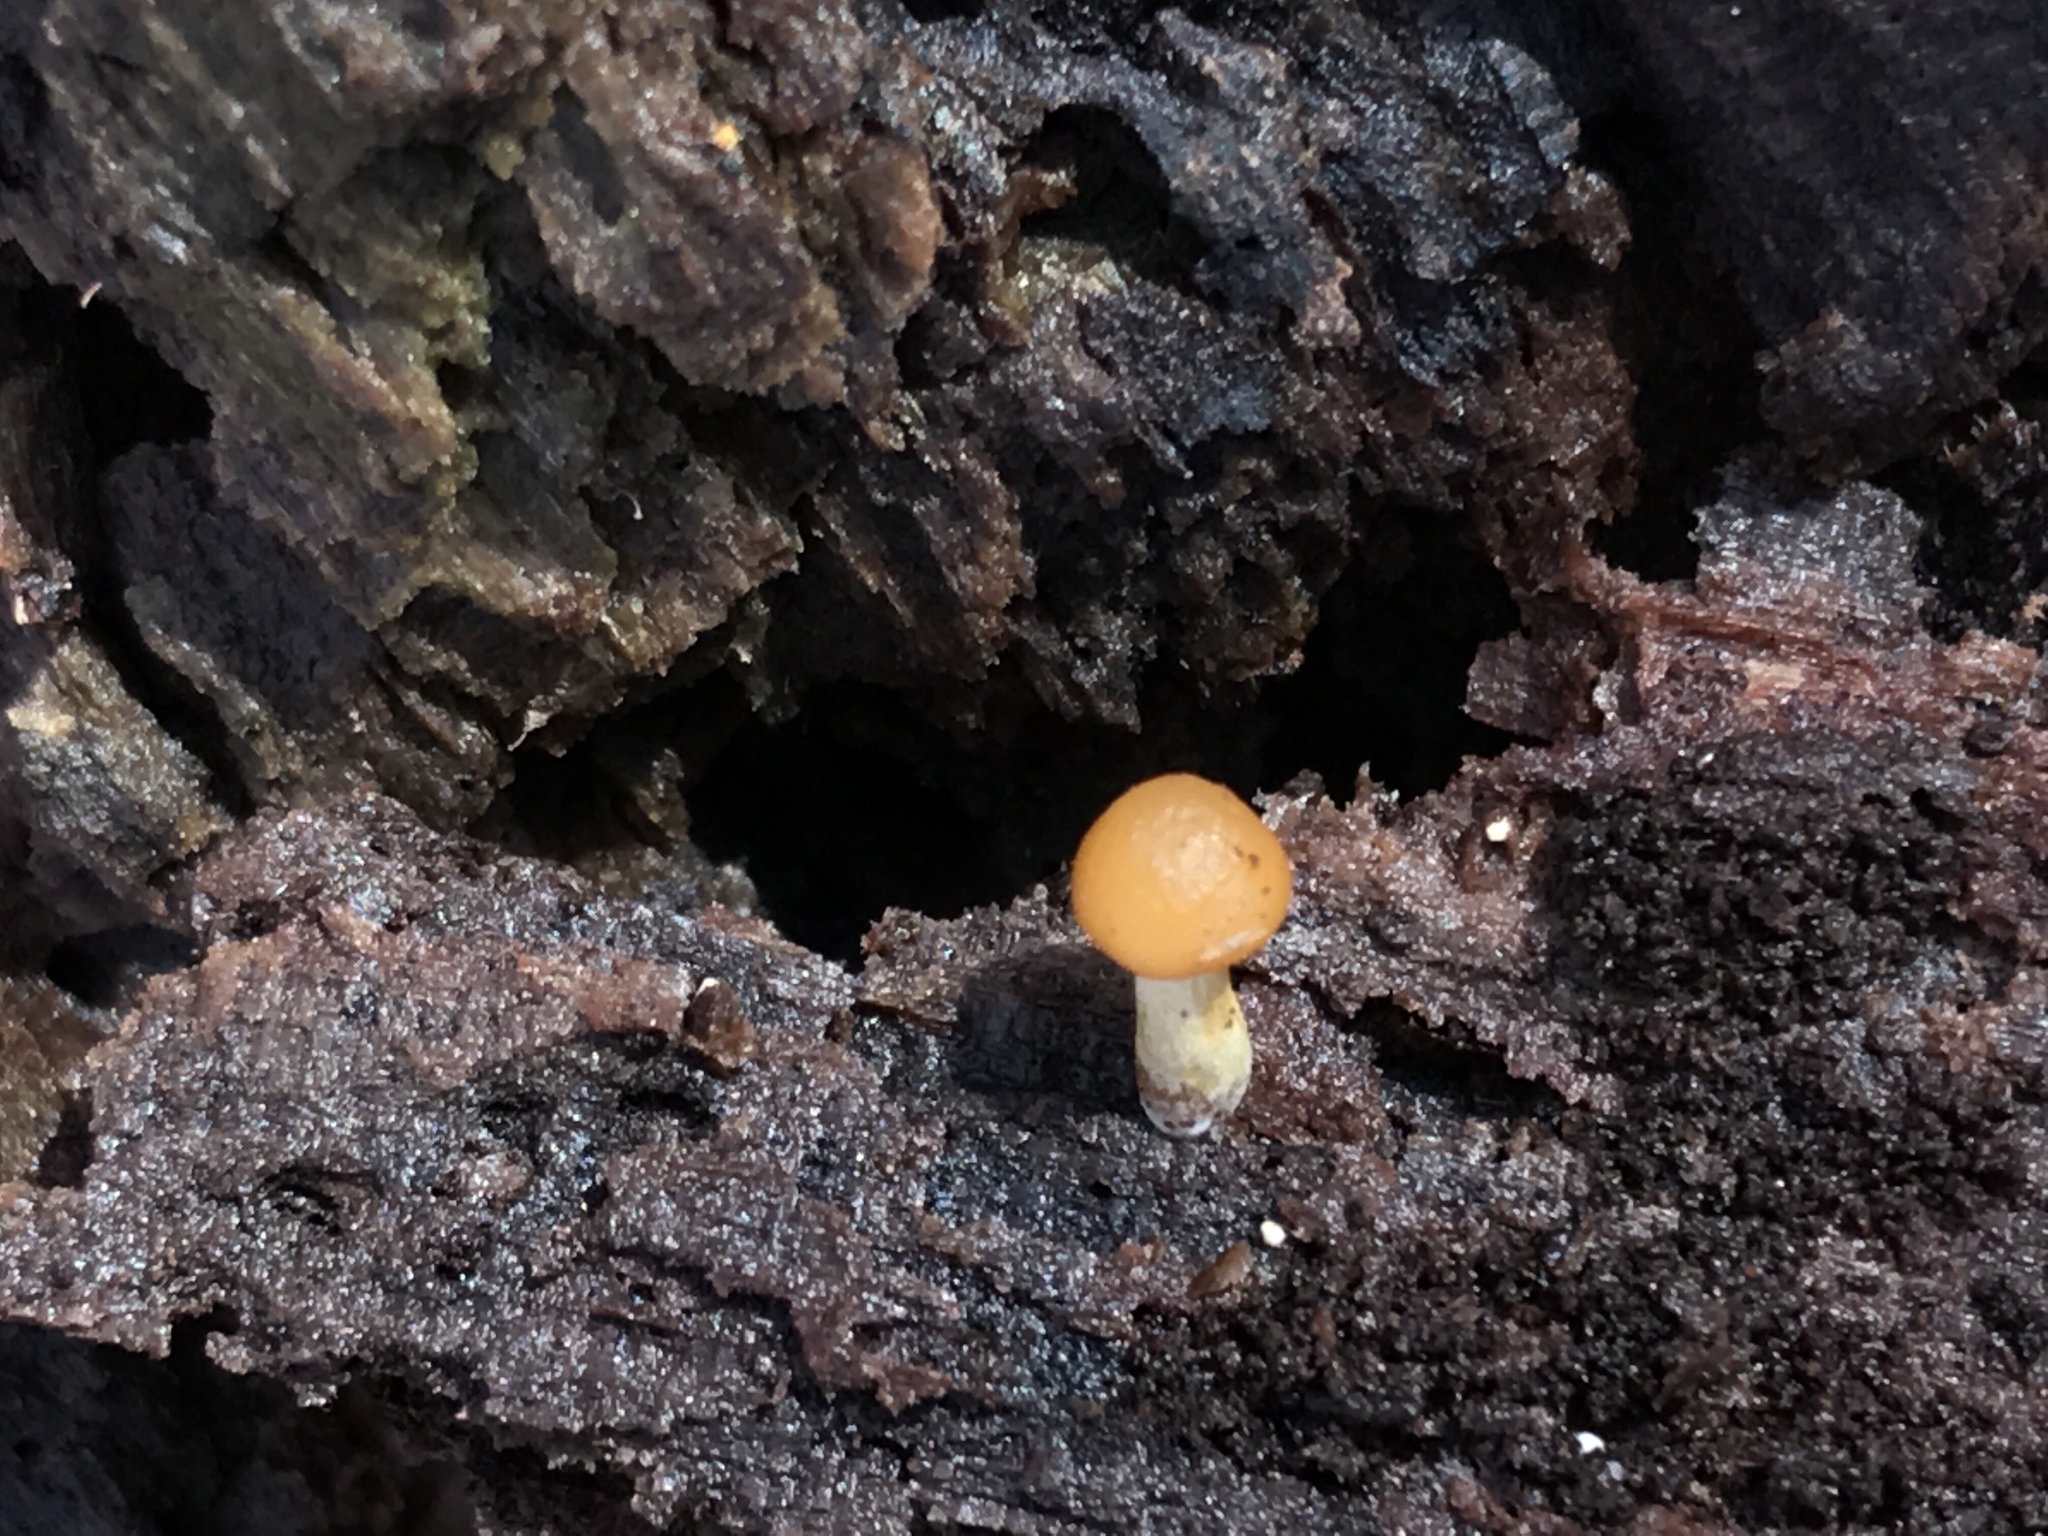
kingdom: Fungi
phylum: Basidiomycota
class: Agaricomycetes
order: Agaricales
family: Hymenogastraceae
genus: Galerina
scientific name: Galerina marginata
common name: Funeral bell
